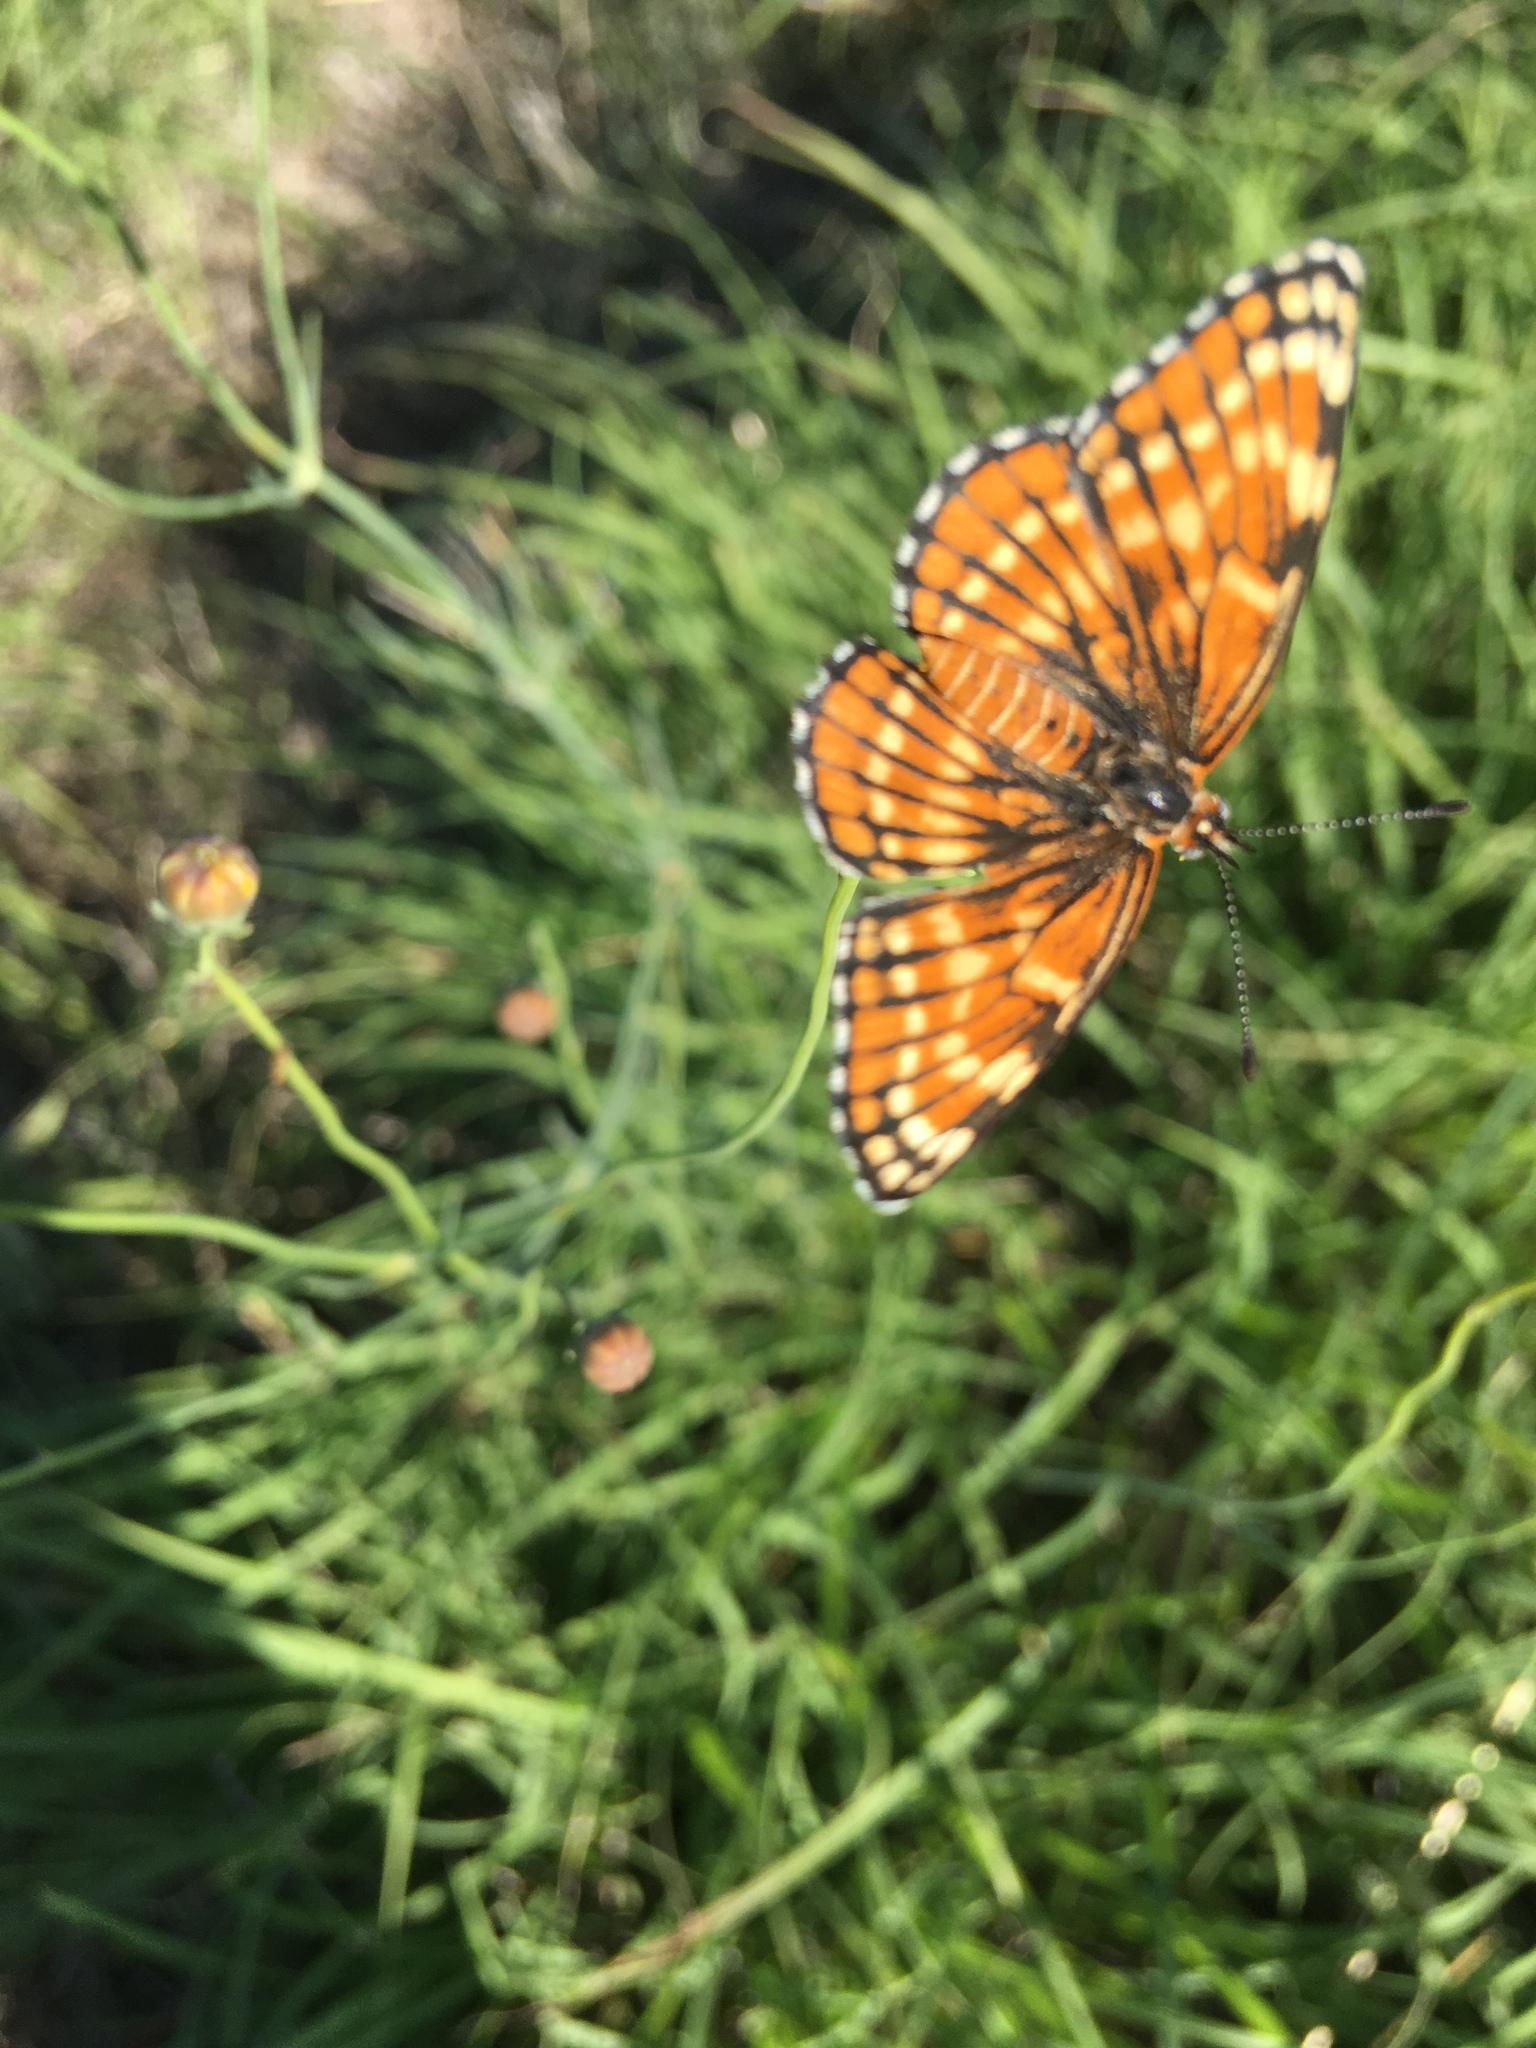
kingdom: Animalia
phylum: Arthropoda
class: Insecta
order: Lepidoptera
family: Nymphalidae
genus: Thessalia
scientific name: Thessalia leanira
